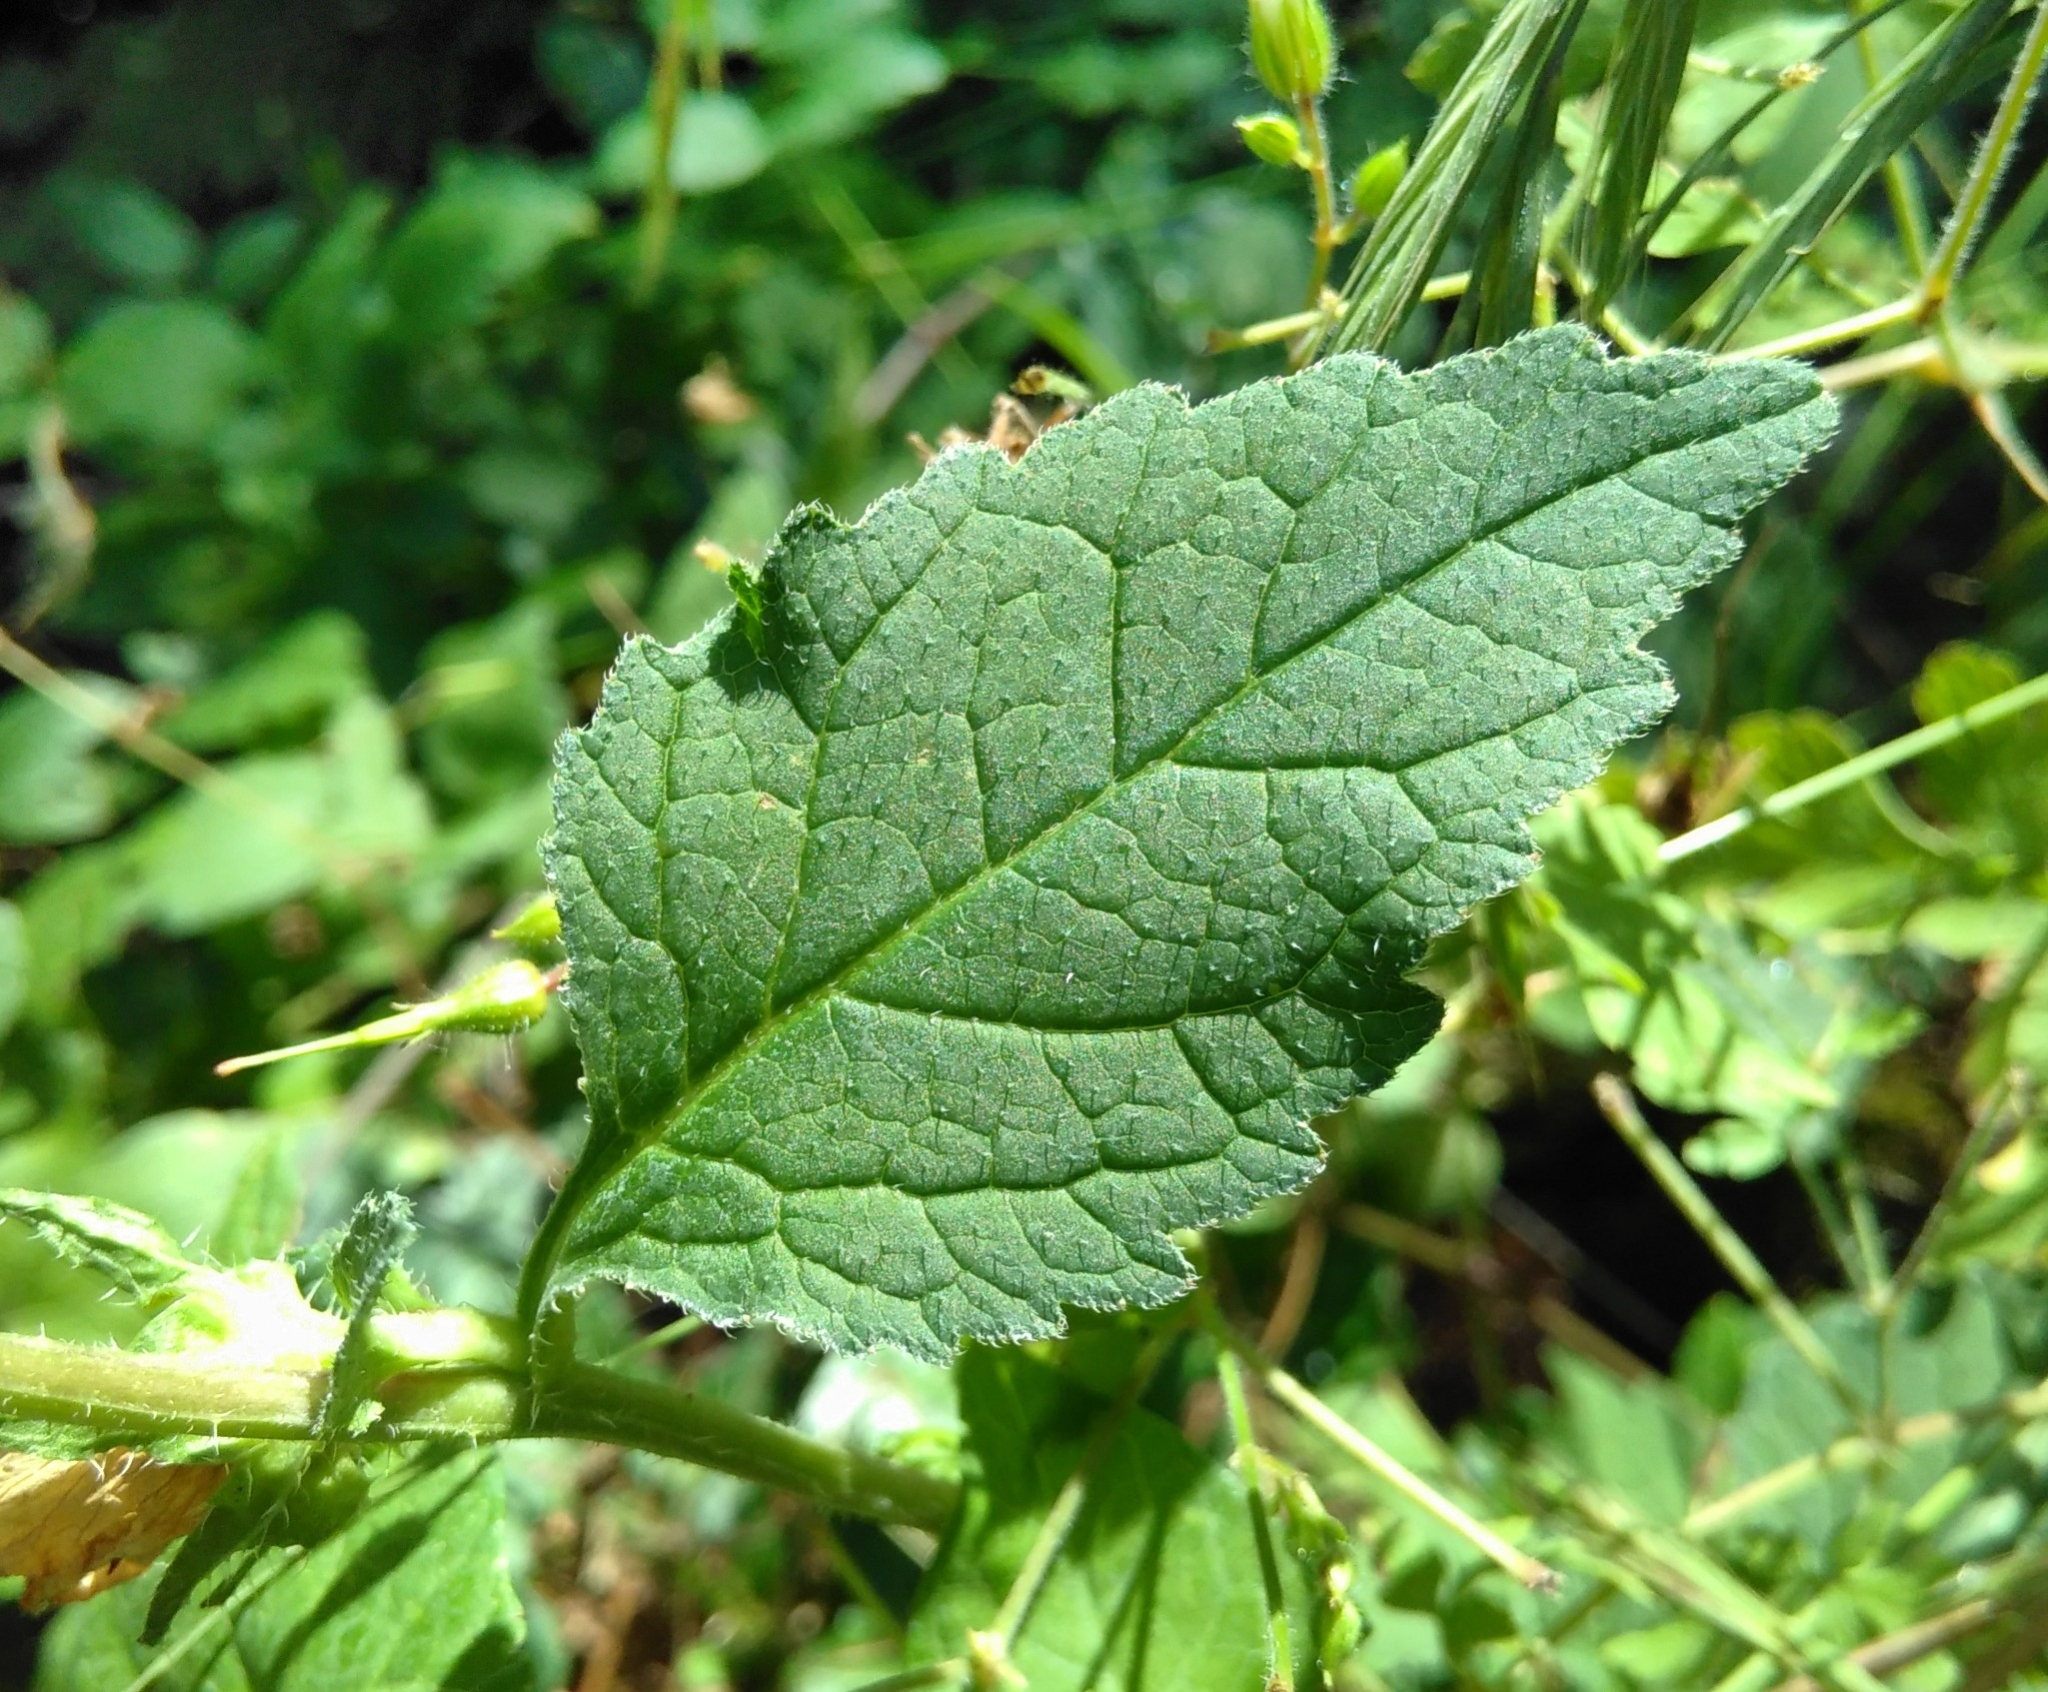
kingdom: Plantae
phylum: Tracheophyta
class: Magnoliopsida
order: Asterales
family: Campanulaceae
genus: Campanula
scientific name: Campanula trachelium
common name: Nettle-leaved bellflower
